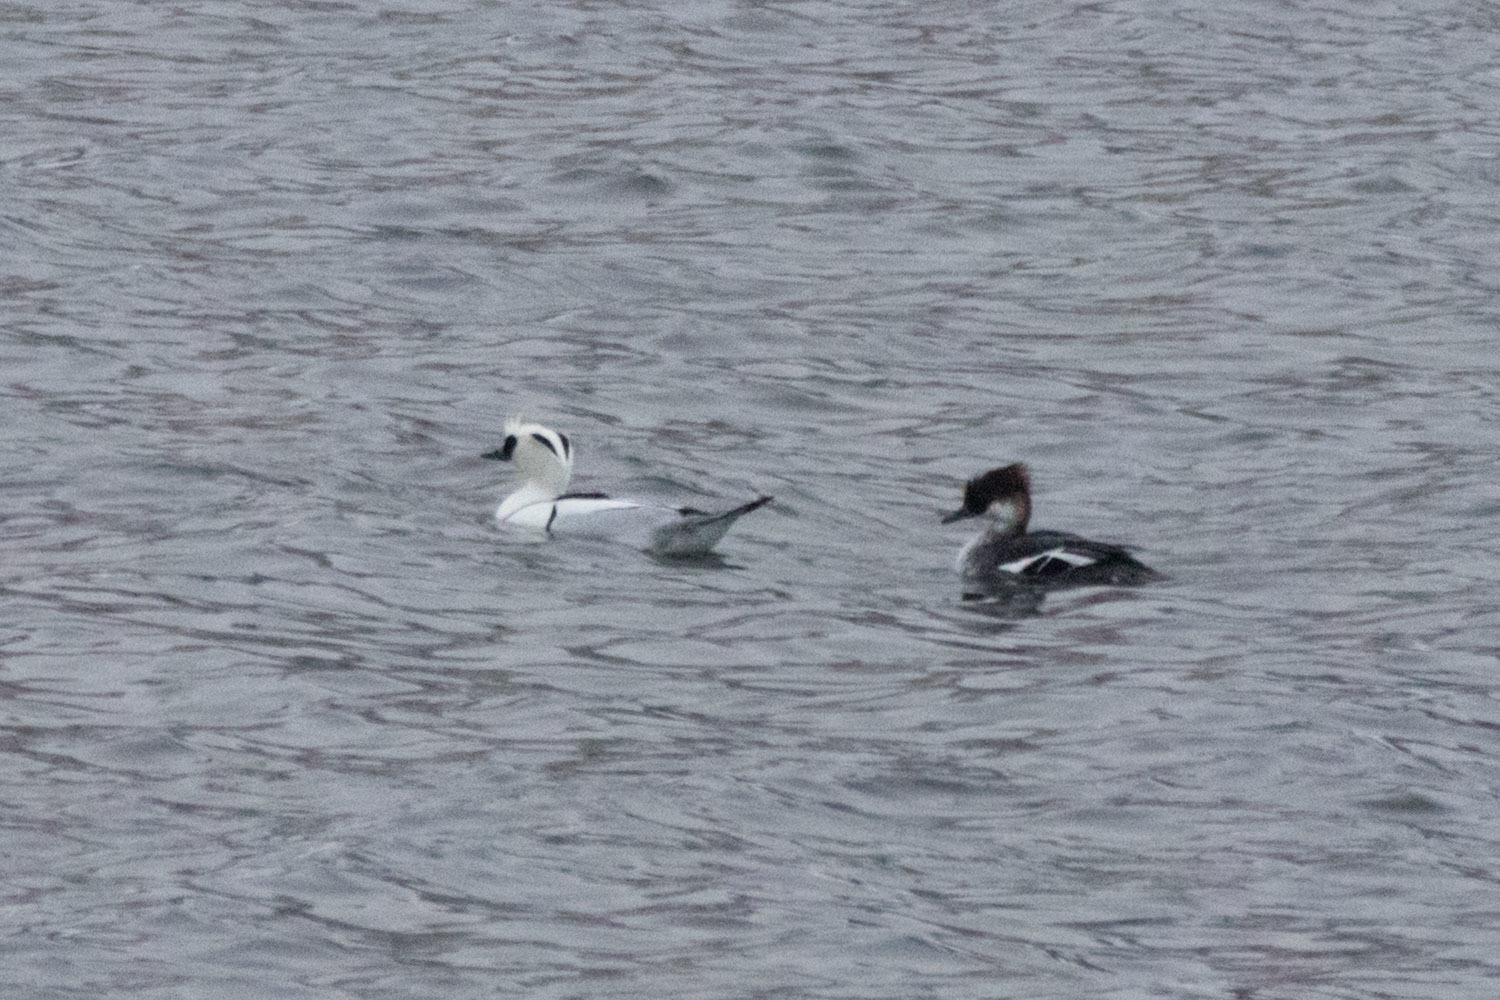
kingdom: Animalia
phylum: Chordata
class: Aves
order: Anseriformes
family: Anatidae
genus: Mergellus
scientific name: Mergellus albellus
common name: Smew
